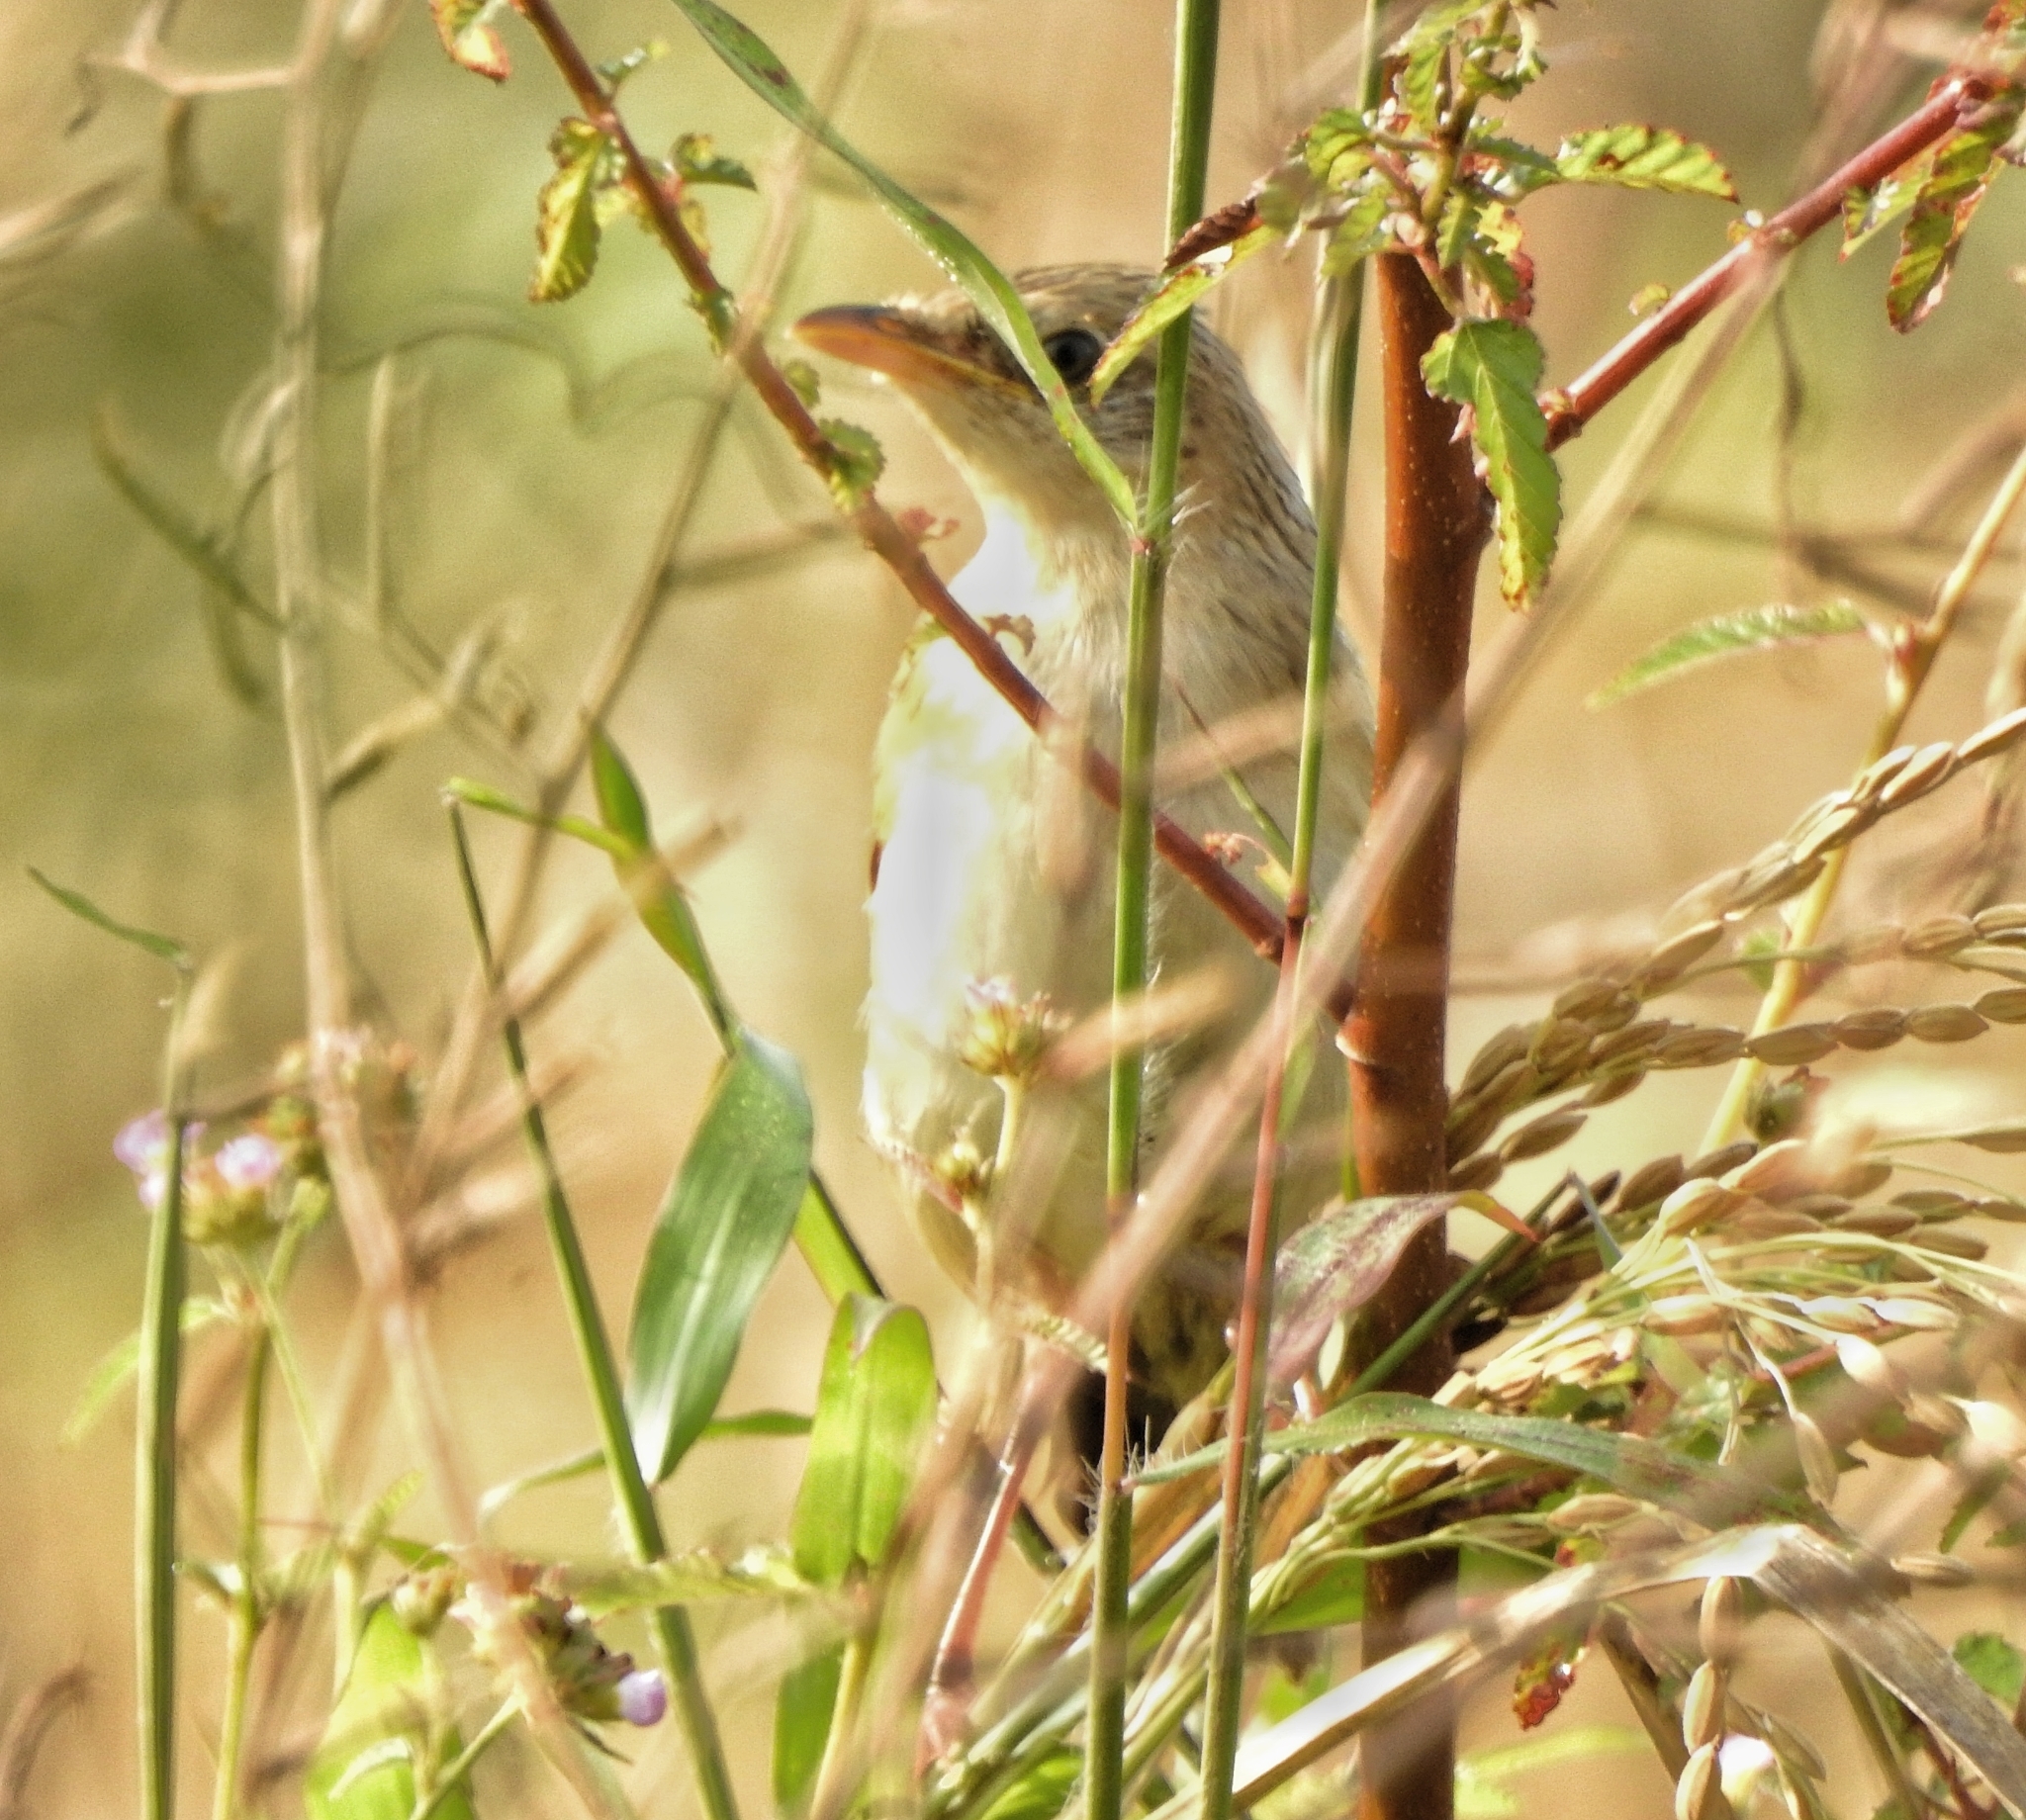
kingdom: Animalia
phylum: Chordata
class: Aves
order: Passeriformes
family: Locustellidae
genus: Chaetornis
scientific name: Chaetornis striata
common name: Bristled grassbird
